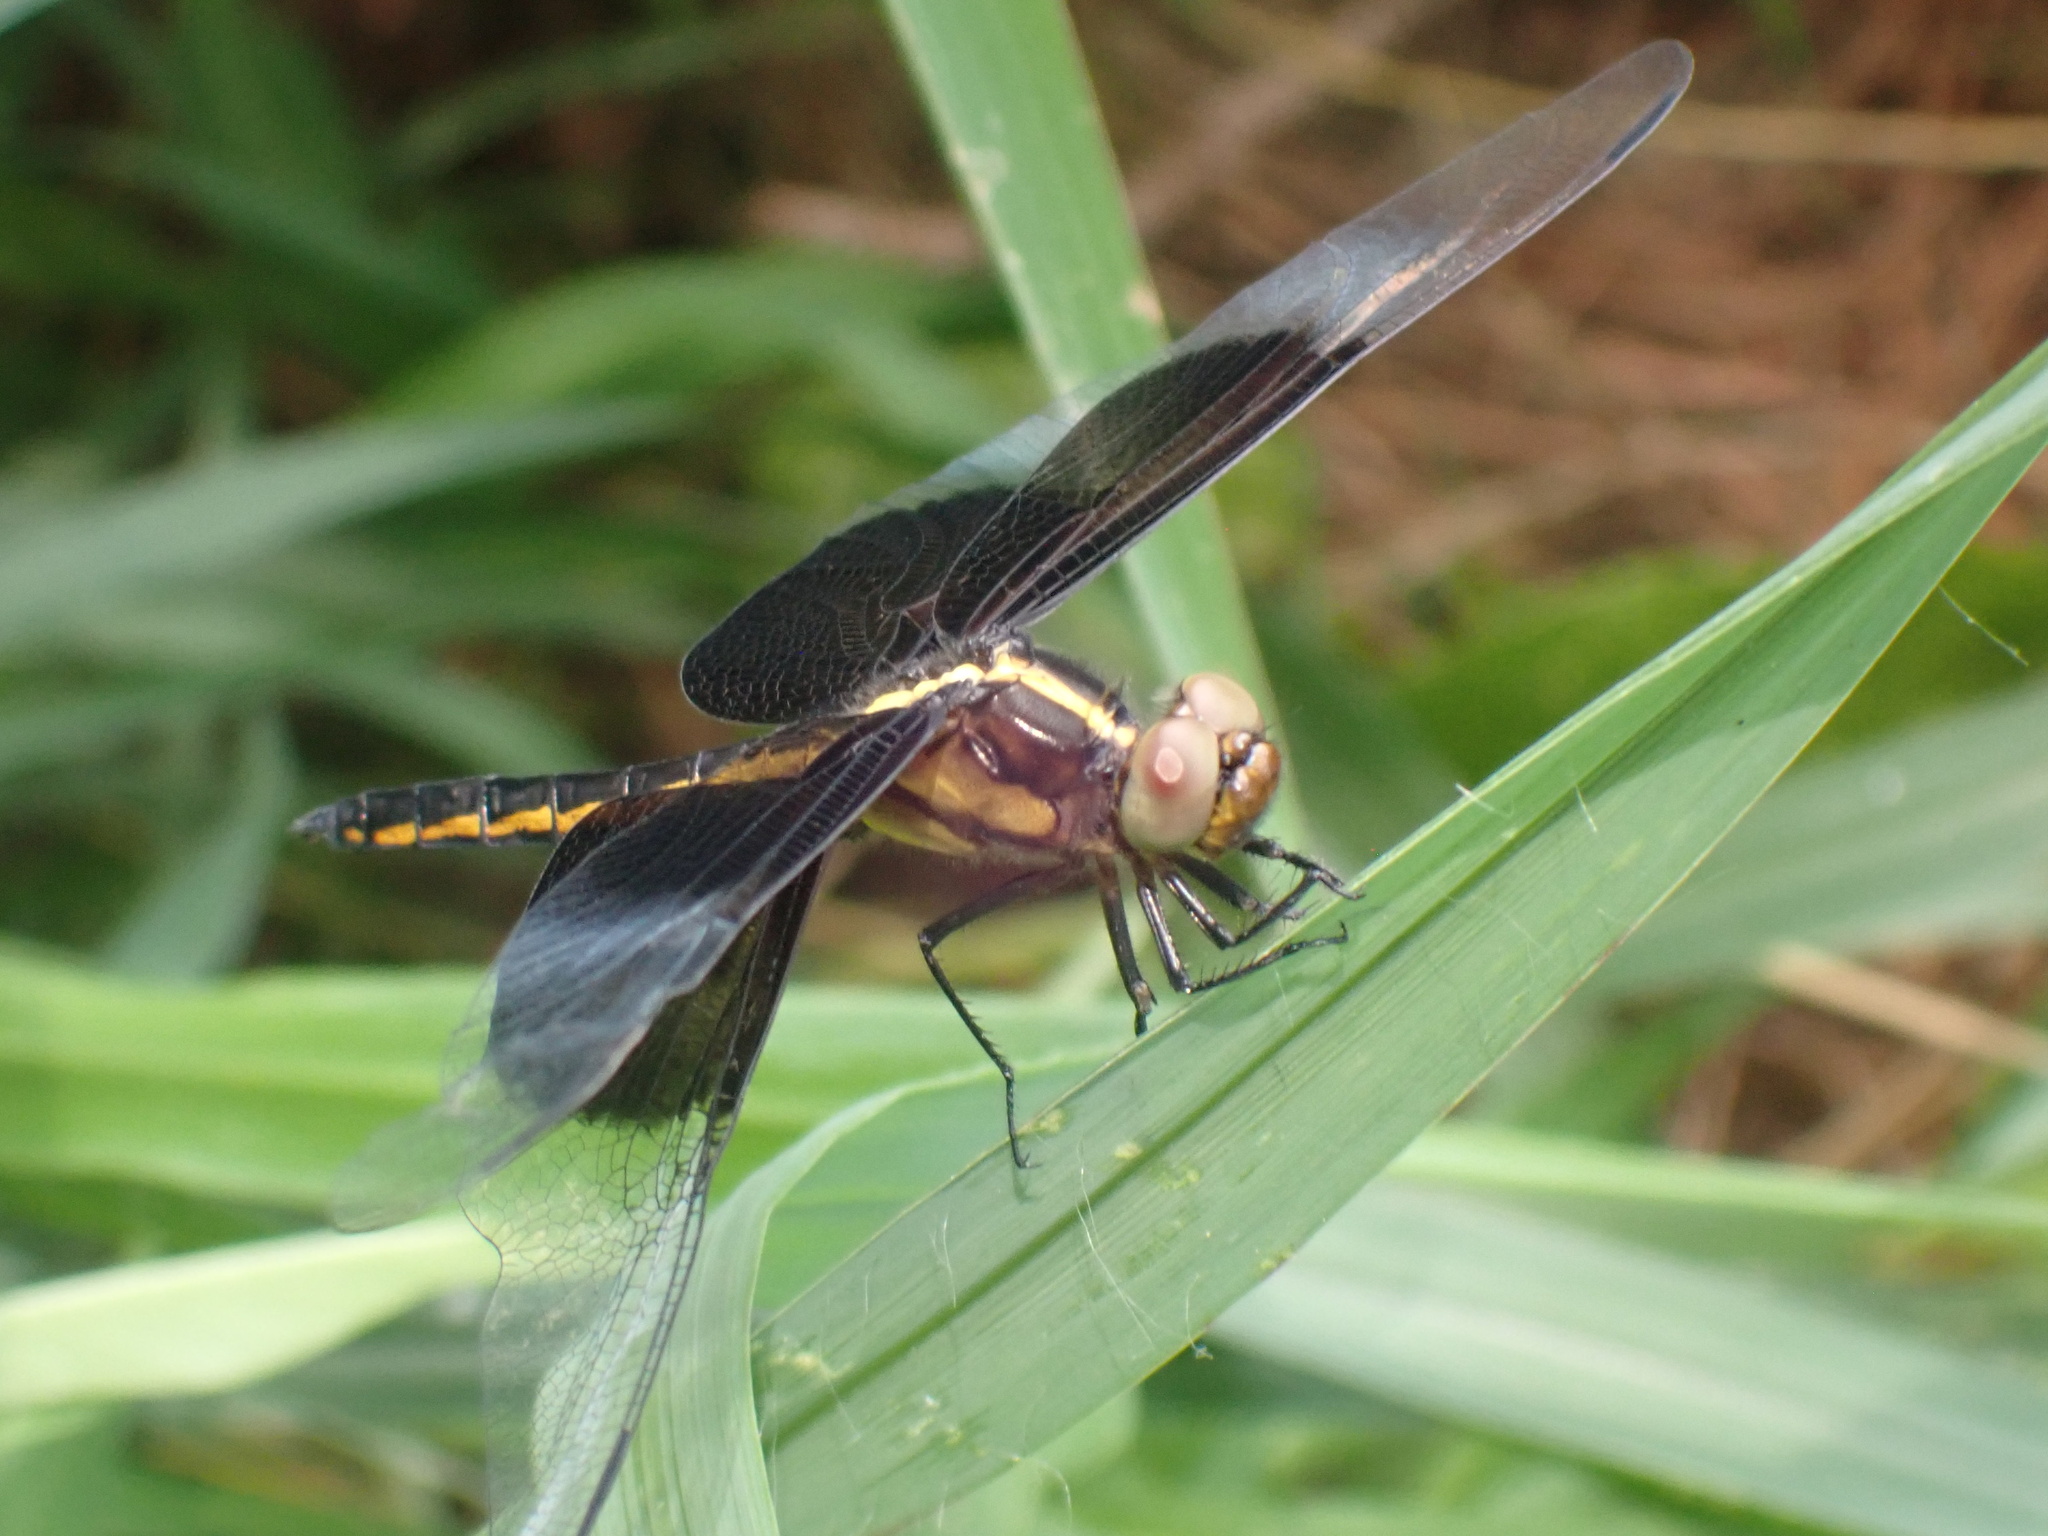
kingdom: Animalia
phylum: Arthropoda
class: Insecta
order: Odonata
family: Libellulidae
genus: Libellula
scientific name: Libellula luctuosa
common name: Widow skimmer
